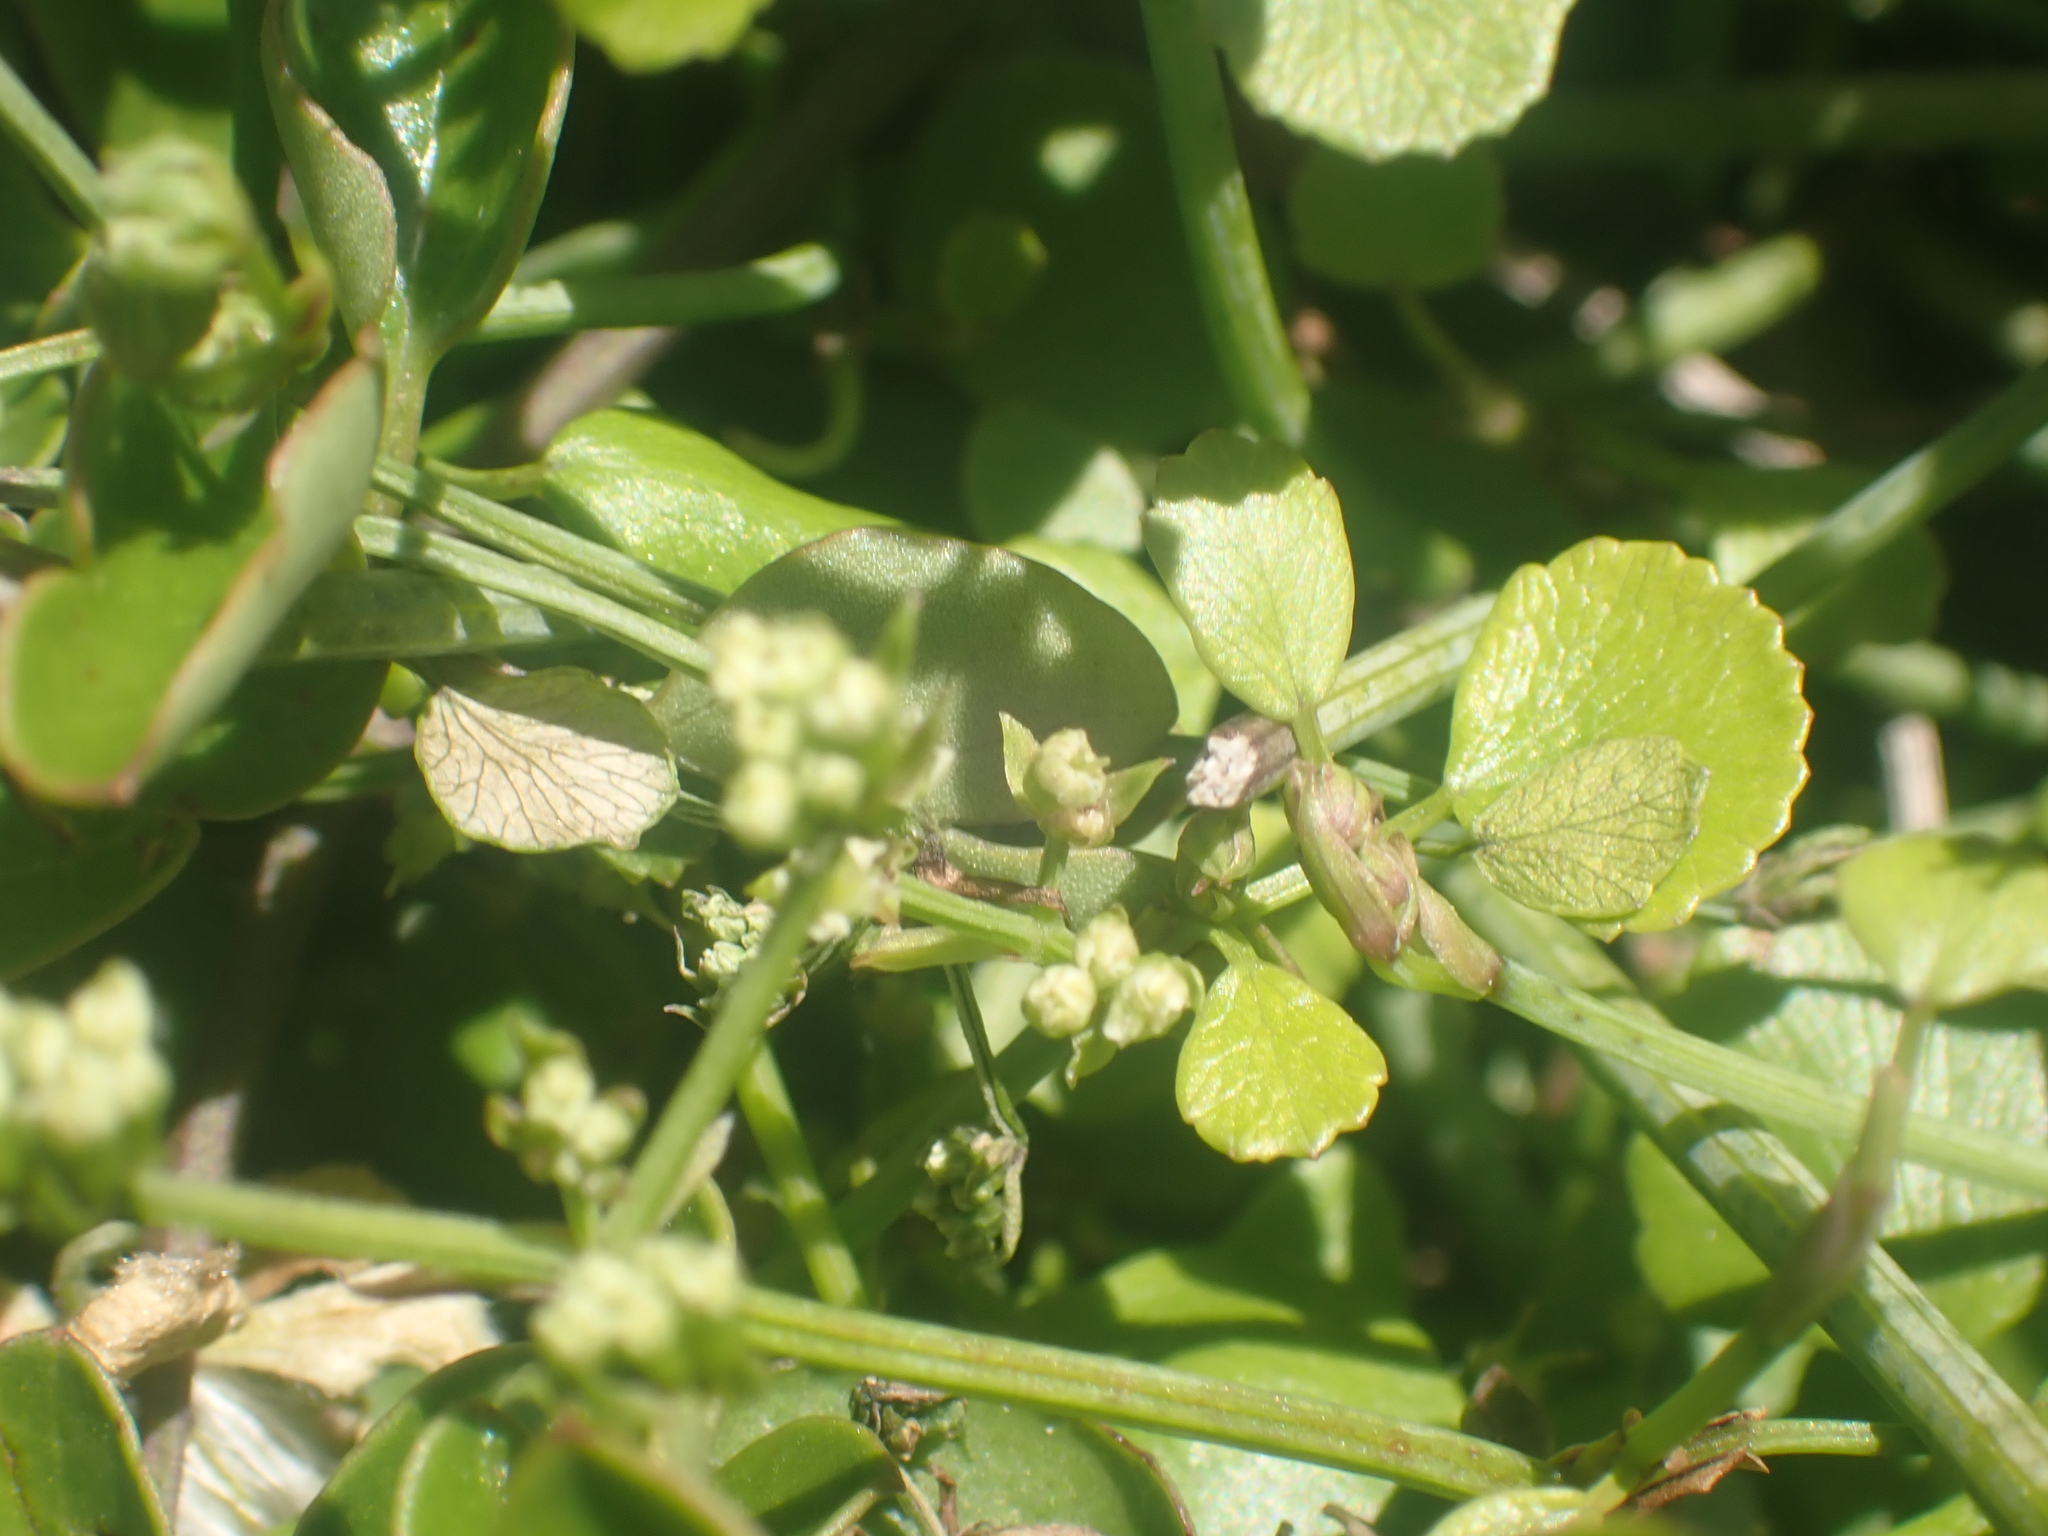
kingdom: Plantae
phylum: Tracheophyta
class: Magnoliopsida
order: Apiales
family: Apiaceae
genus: Scandia
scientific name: Scandia geniculata
